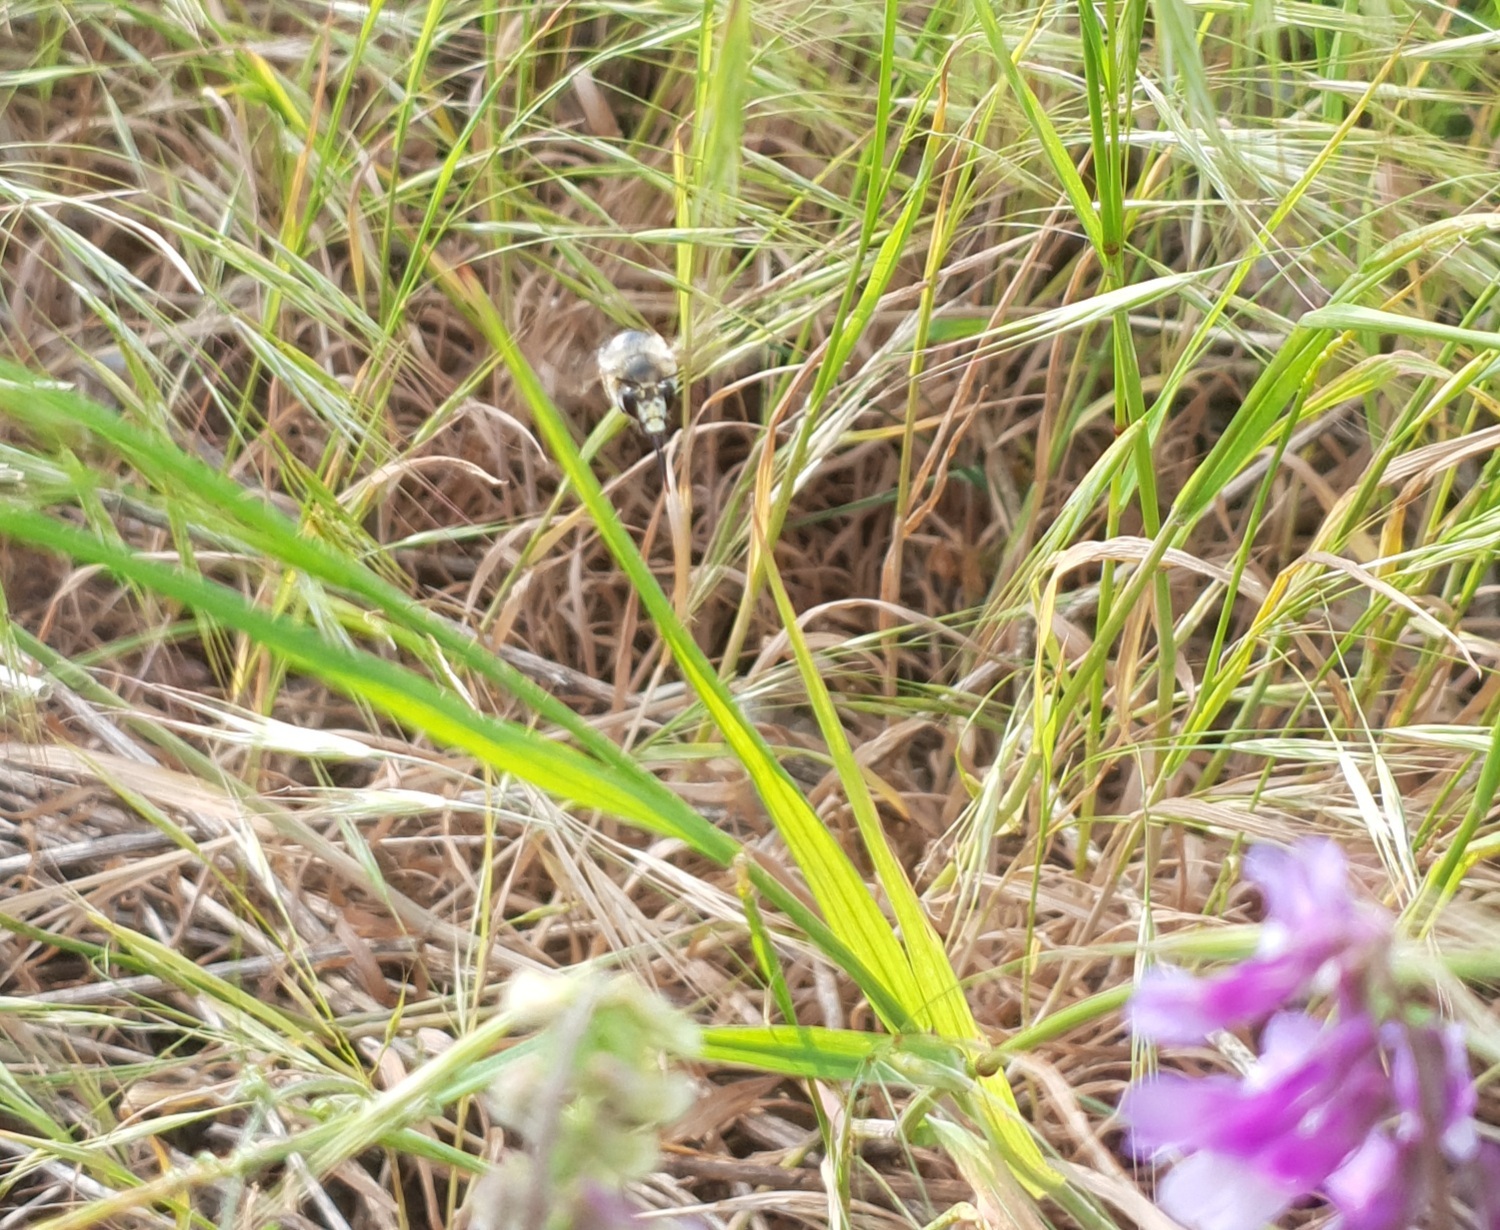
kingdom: Animalia
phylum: Arthropoda
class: Insecta
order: Hymenoptera
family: Apidae
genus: Anthophora
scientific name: Anthophora aestivalis
